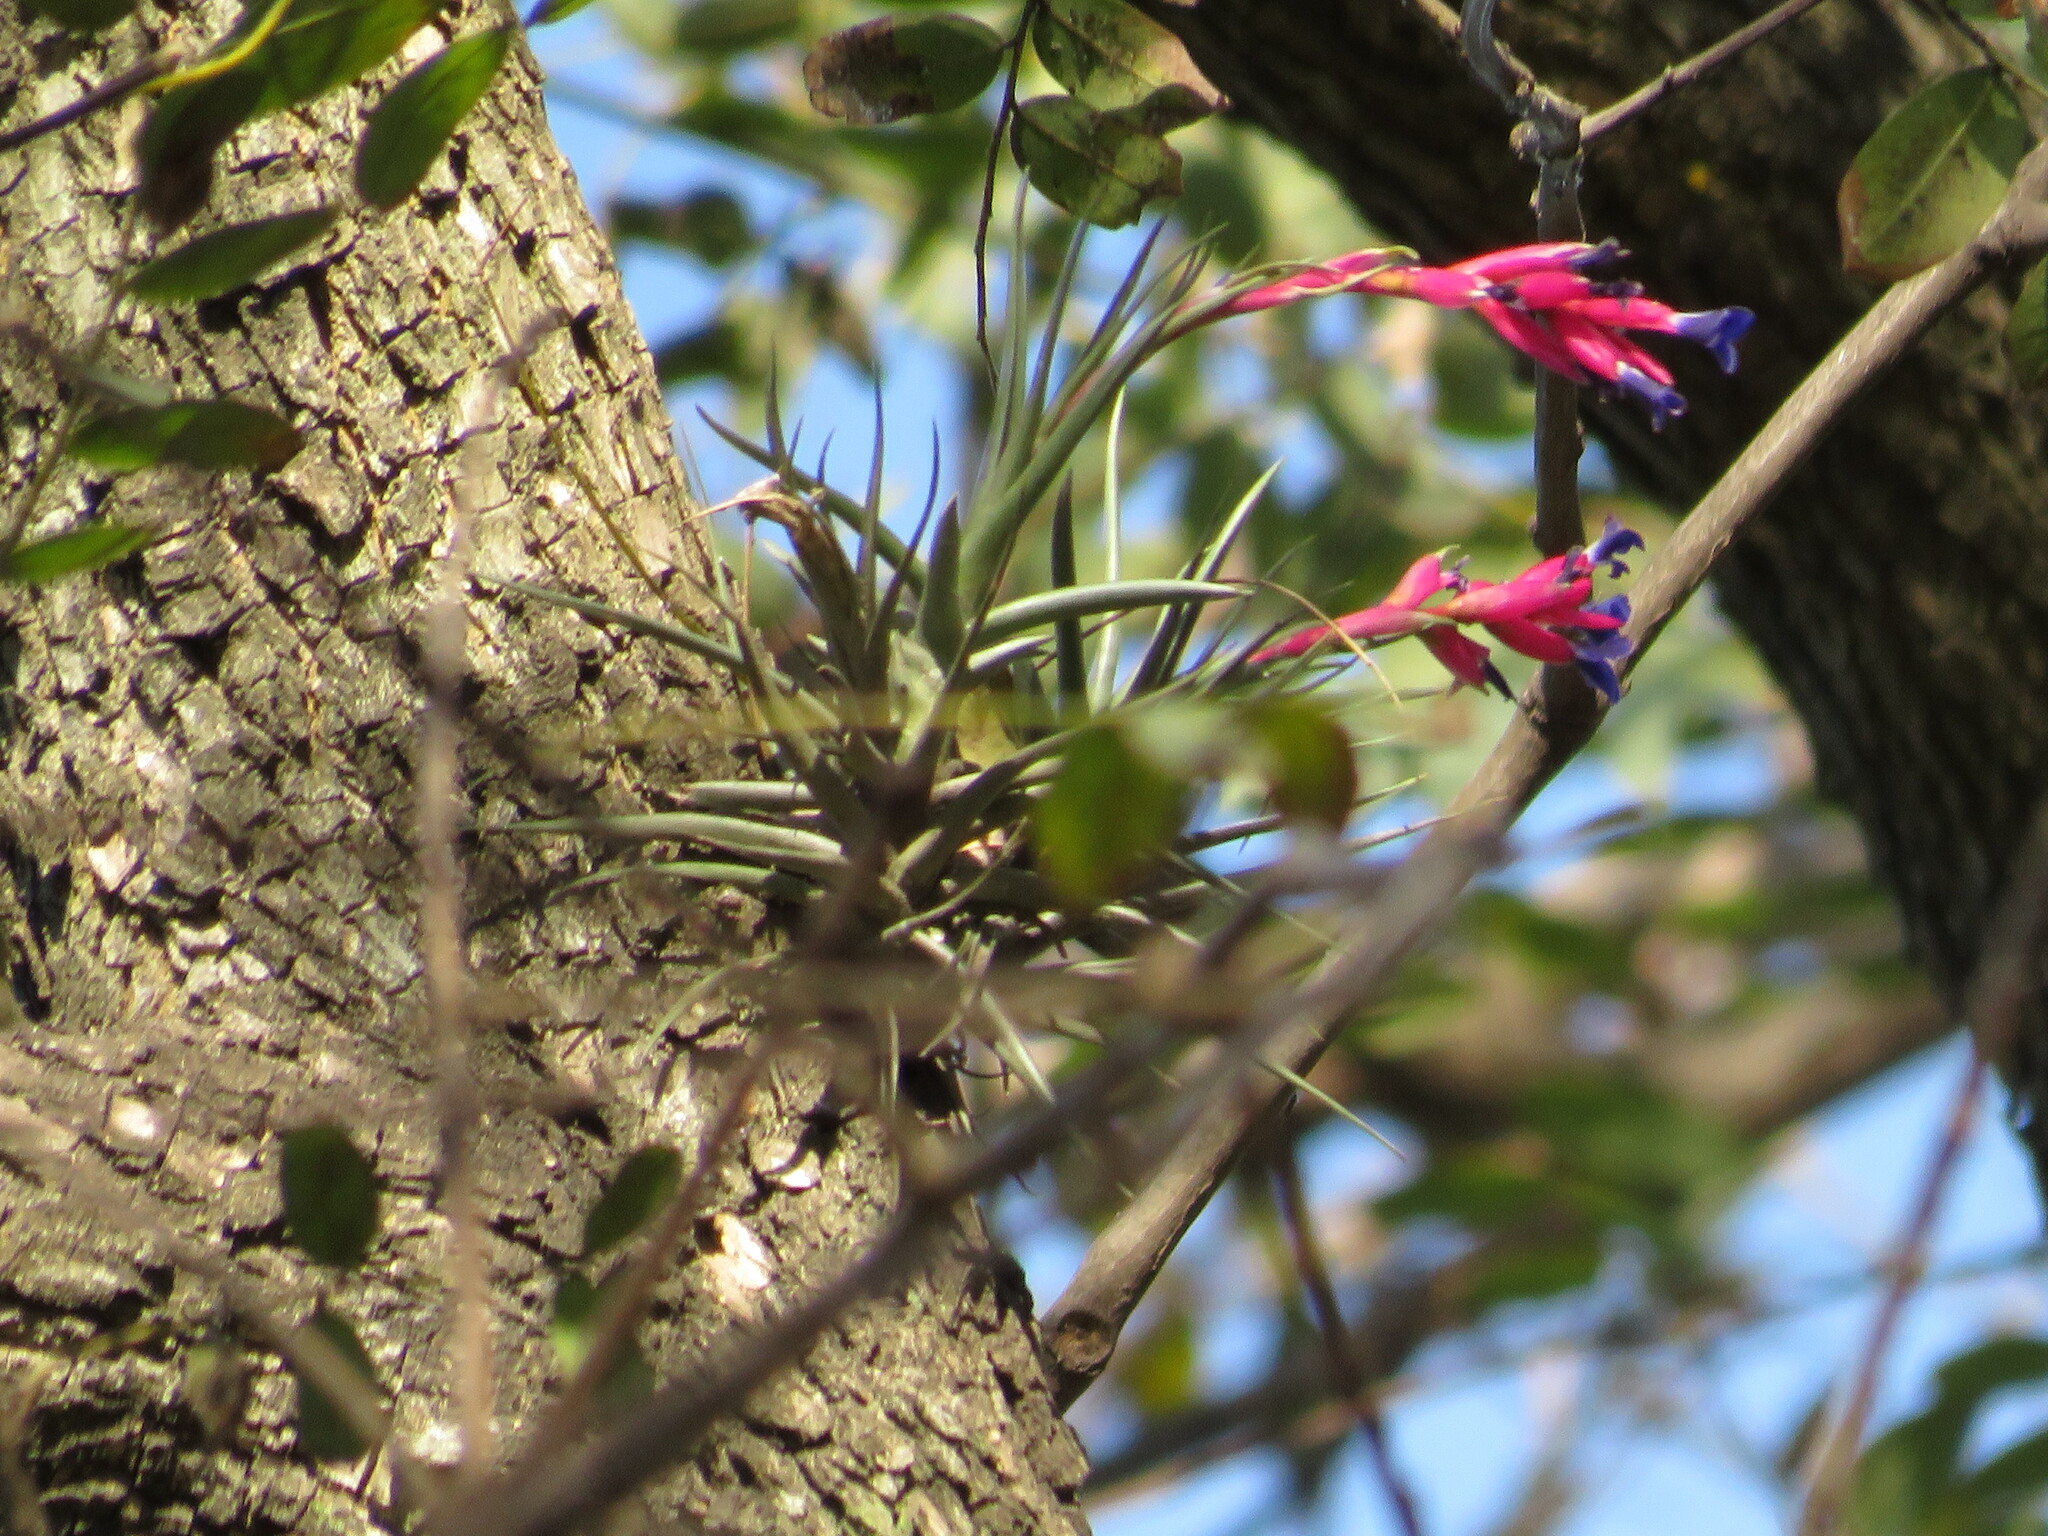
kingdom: Plantae
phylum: Tracheophyta
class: Liliopsida
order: Poales
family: Bromeliaceae
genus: Tillandsia
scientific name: Tillandsia aeranthos
